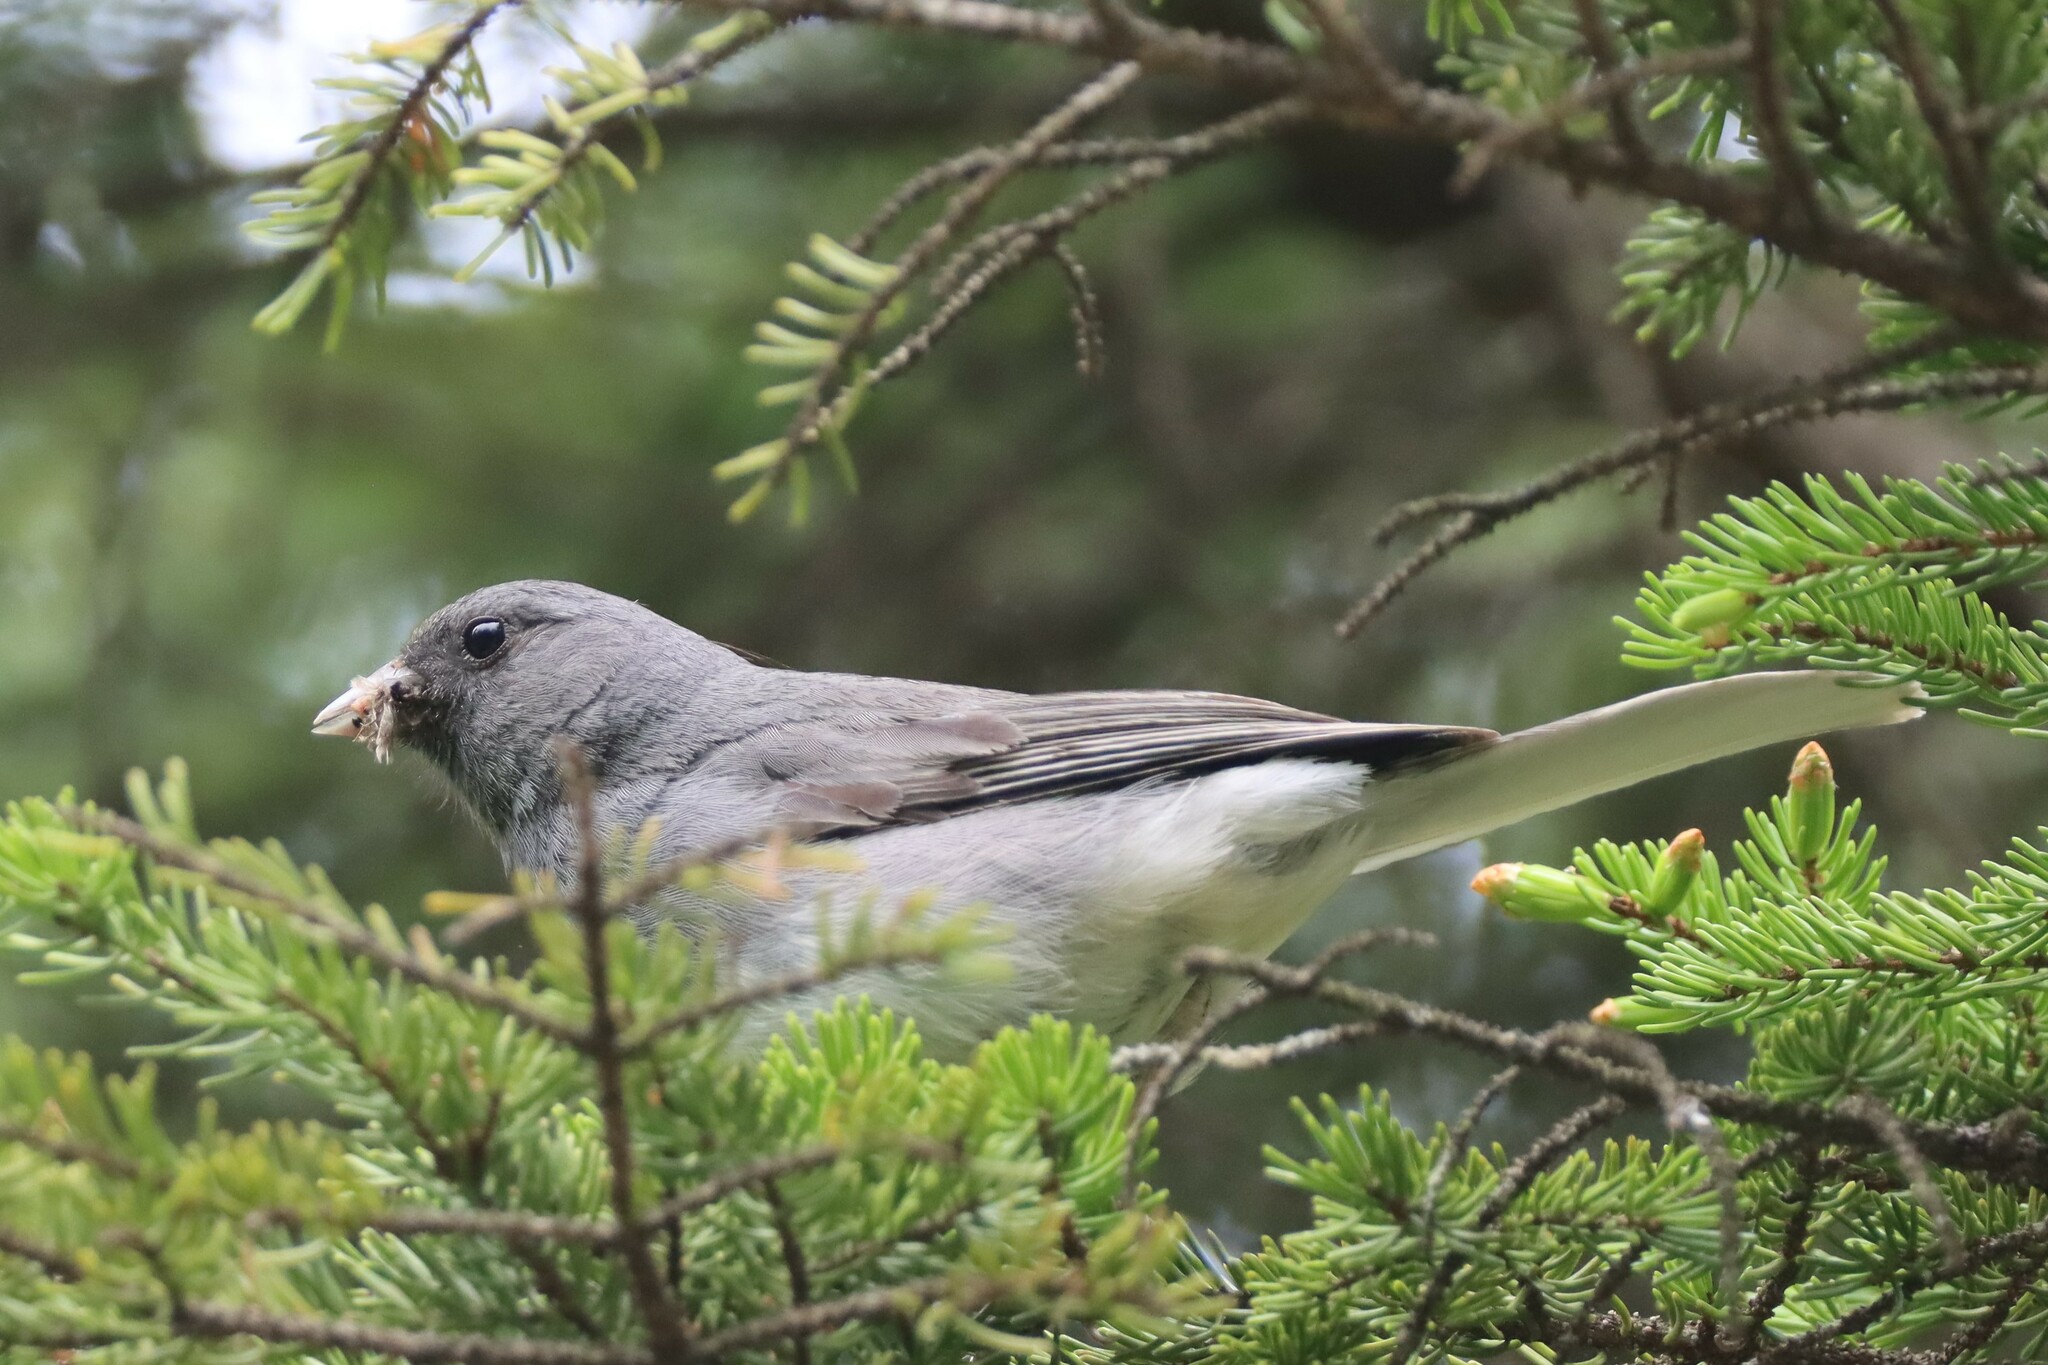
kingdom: Animalia
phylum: Chordata
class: Aves
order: Passeriformes
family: Passerellidae
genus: Junco
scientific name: Junco hyemalis
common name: Dark-eyed junco
